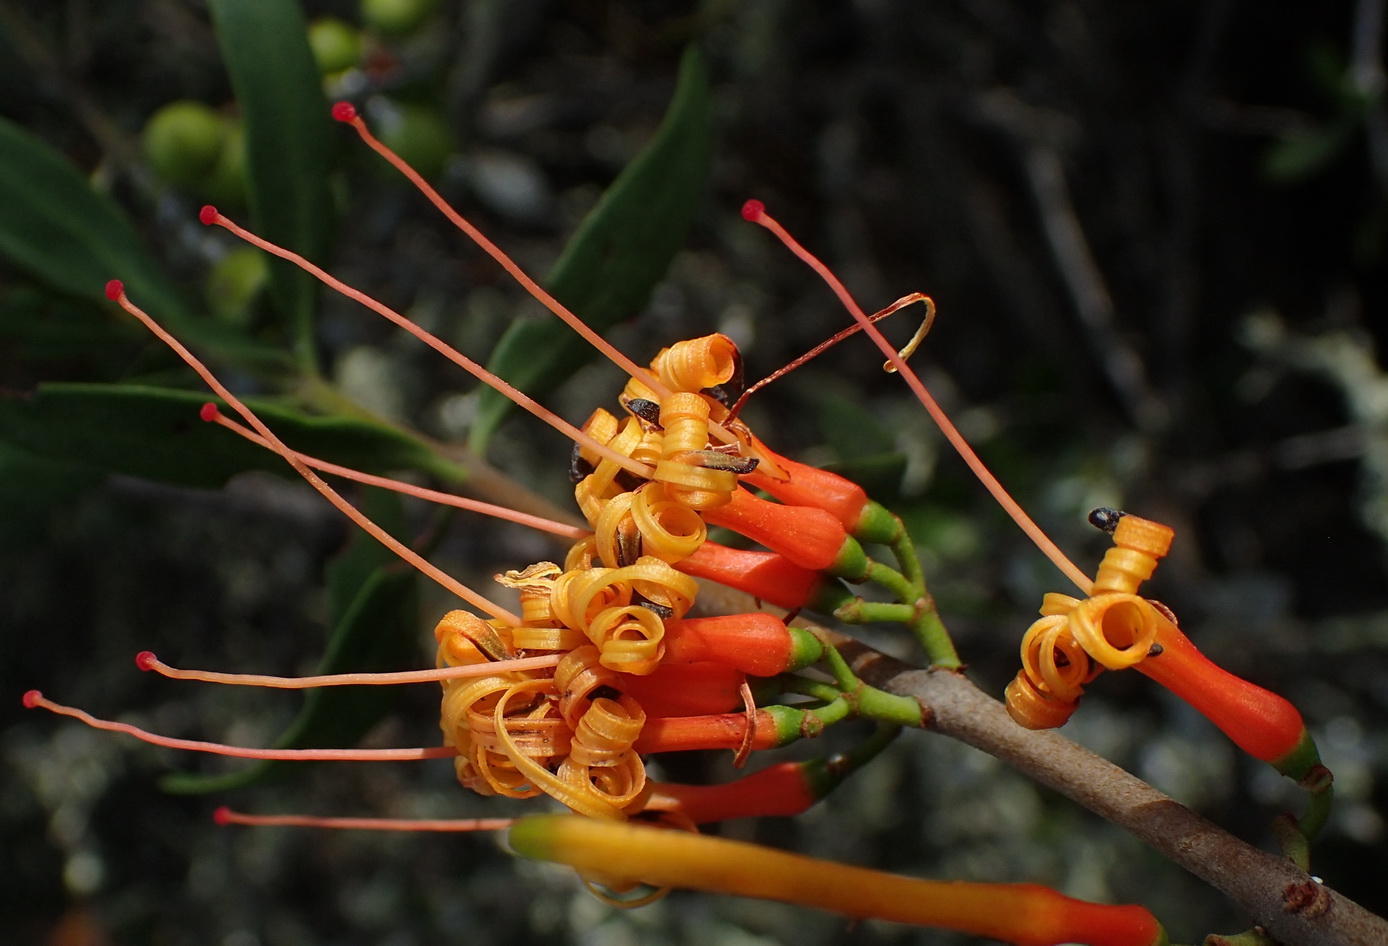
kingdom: Plantae
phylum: Tracheophyta
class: Magnoliopsida
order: Santalales
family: Loranthaceae
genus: Moquiniella
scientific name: Moquiniella rubra
